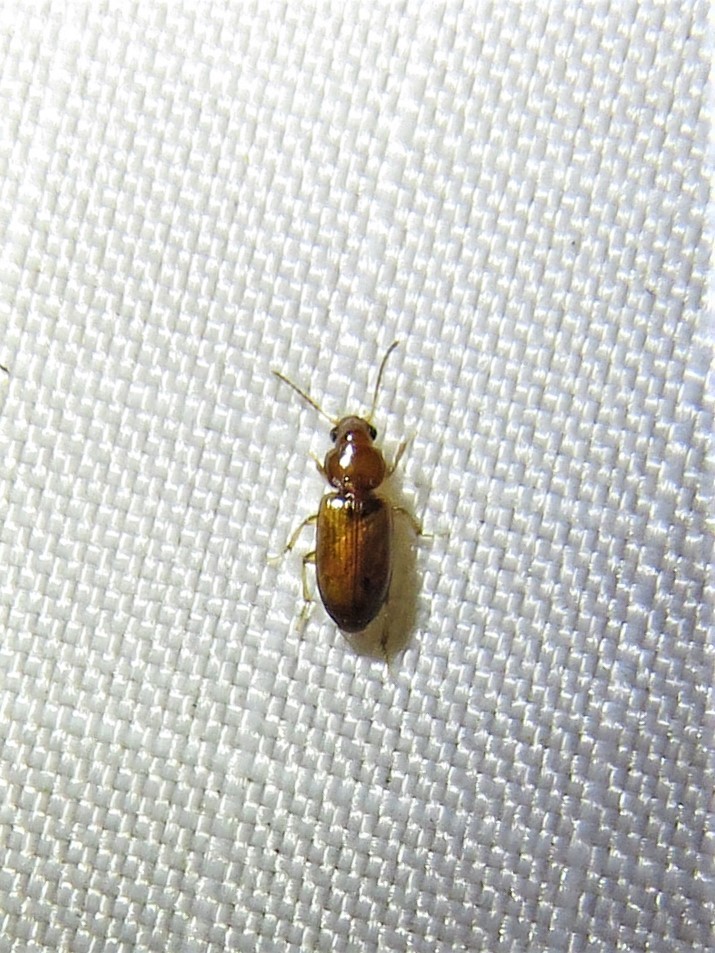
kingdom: Animalia
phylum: Arthropoda
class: Insecta
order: Coleoptera
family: Carabidae
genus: Acupalpus
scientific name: Acupalpus testaceus
